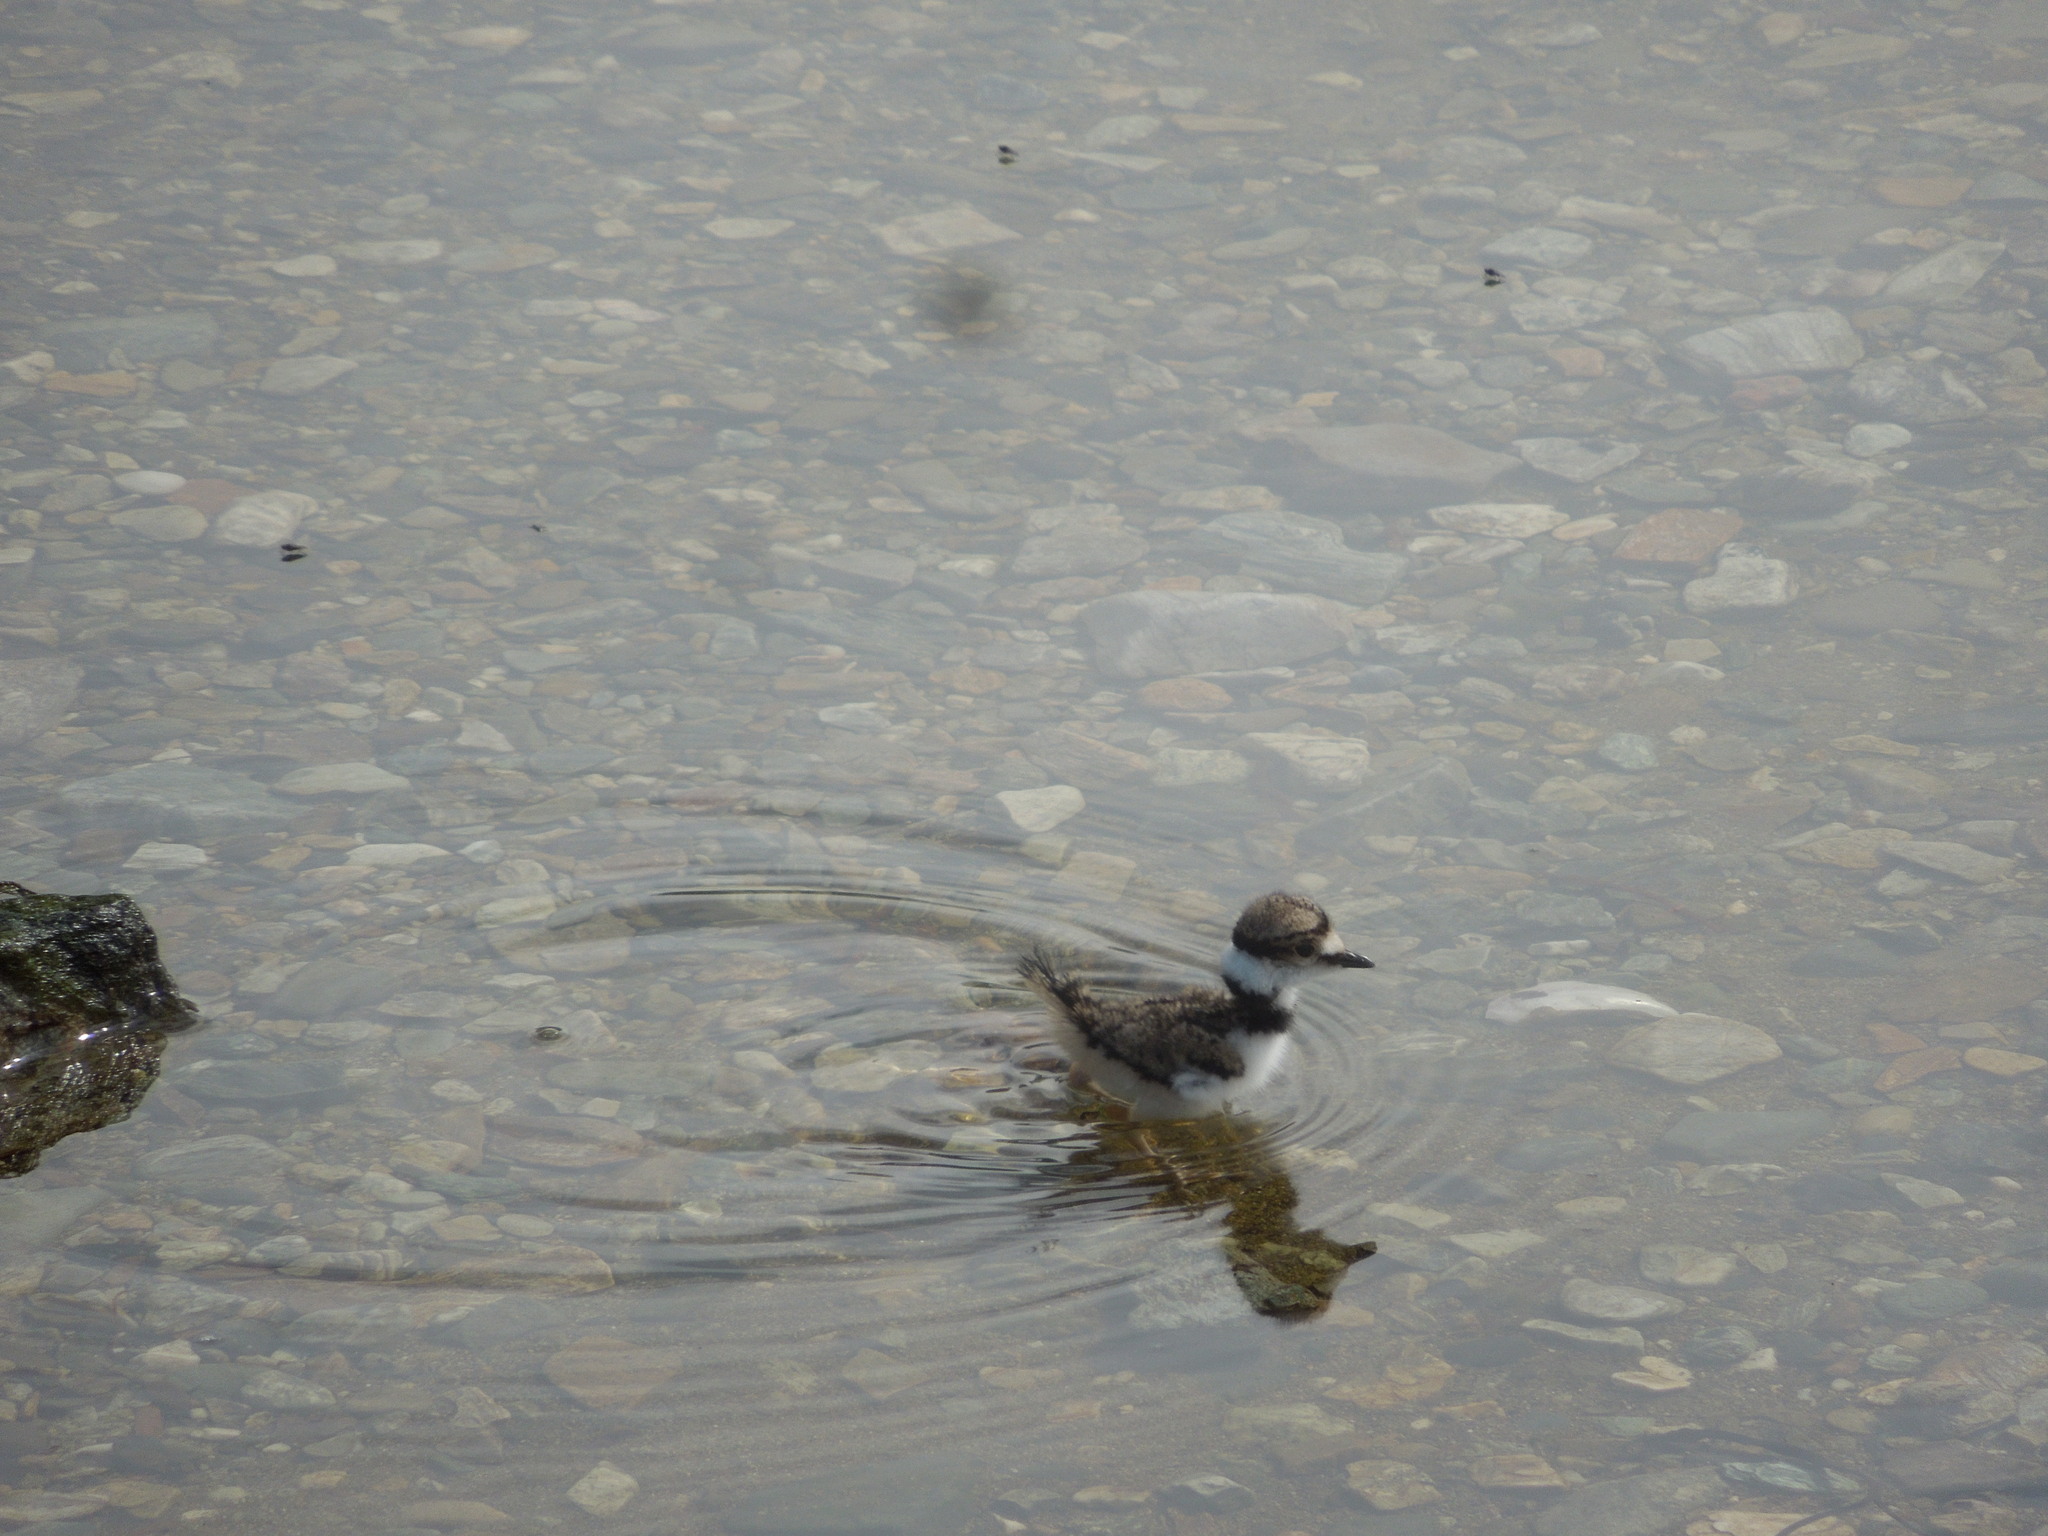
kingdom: Animalia
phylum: Chordata
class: Aves
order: Charadriiformes
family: Charadriidae
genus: Charadrius
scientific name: Charadrius vociferus
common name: Killdeer
